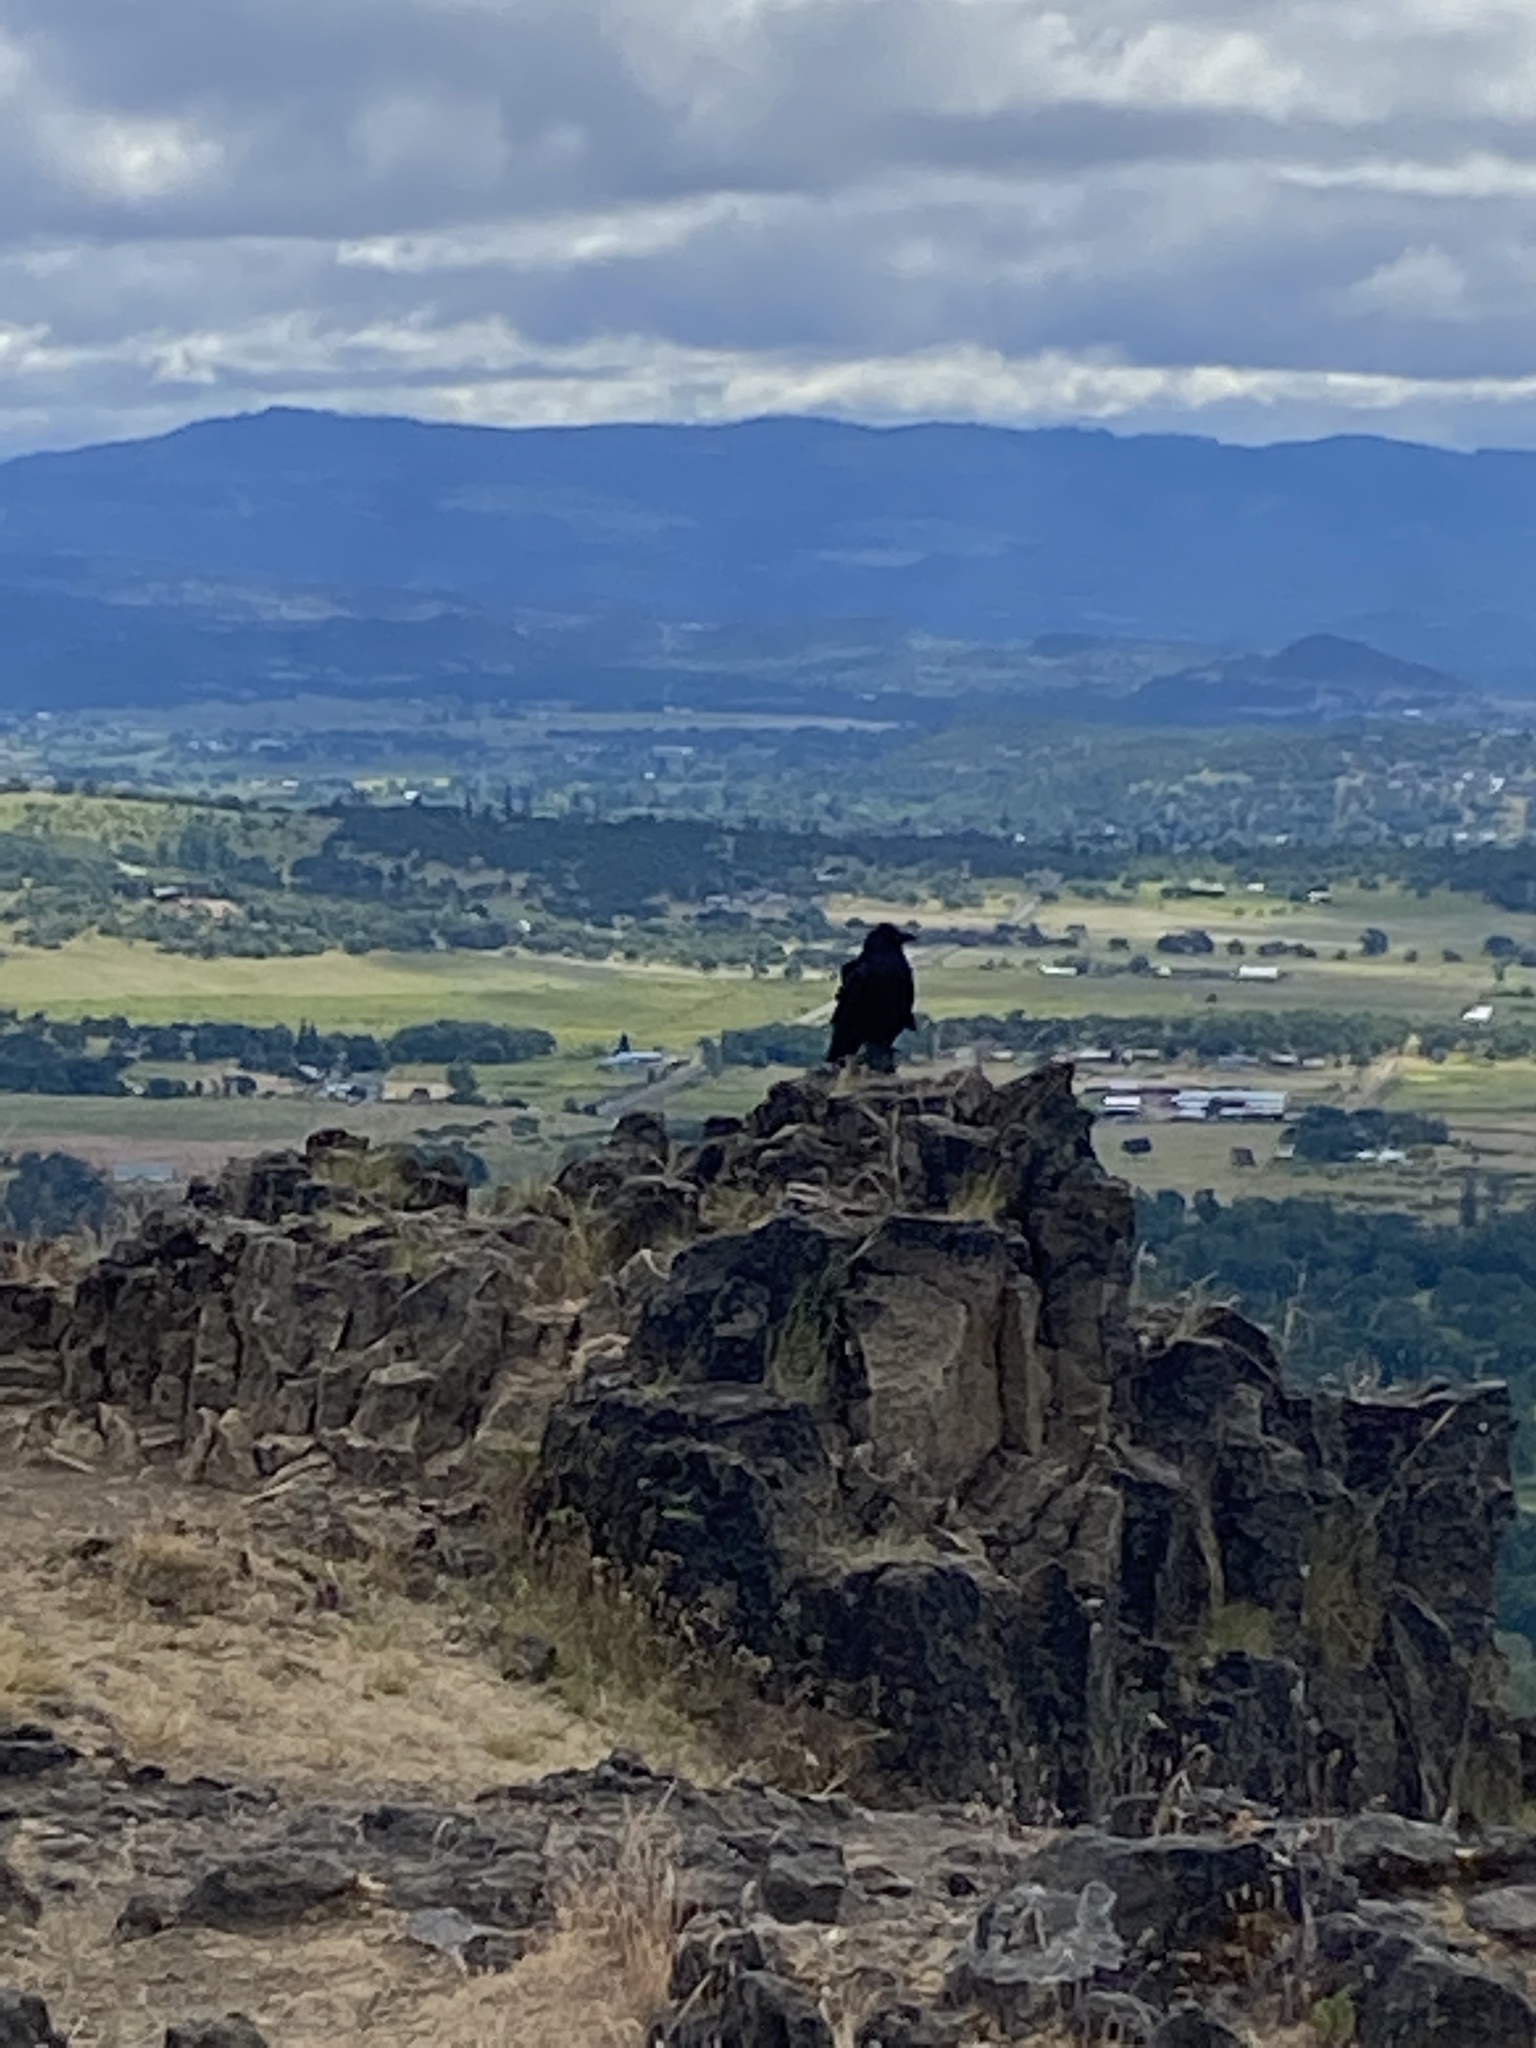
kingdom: Animalia
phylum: Chordata
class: Aves
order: Passeriformes
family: Corvidae
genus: Corvus
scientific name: Corvus corax
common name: Common raven
